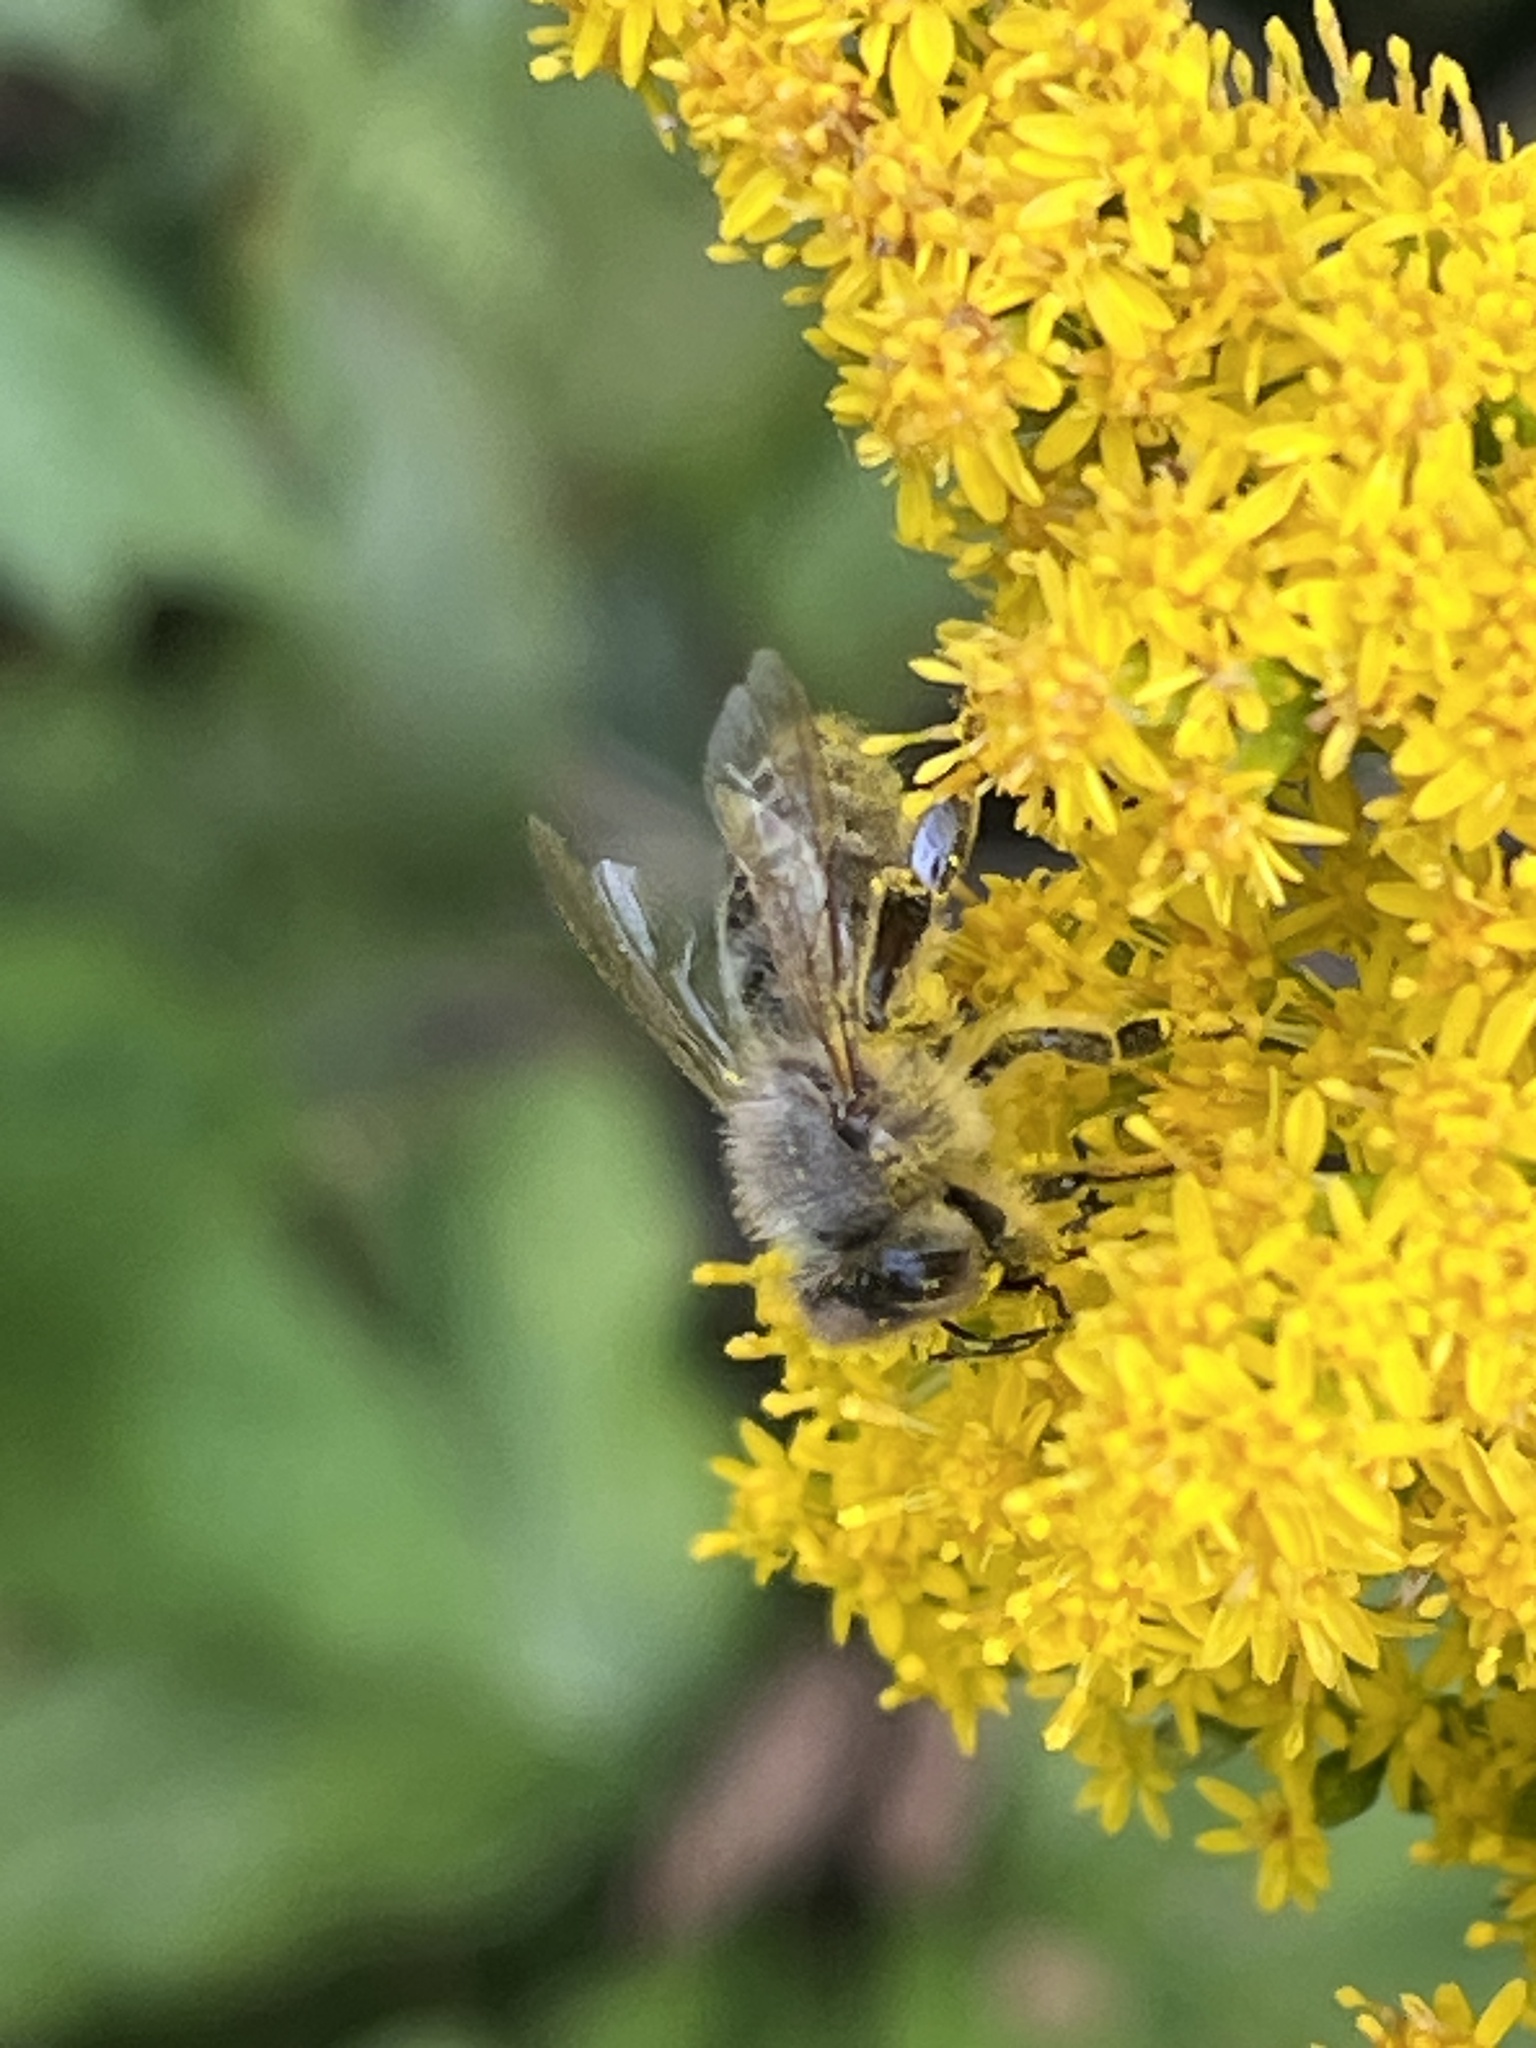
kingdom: Animalia
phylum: Arthropoda
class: Insecta
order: Hymenoptera
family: Apidae
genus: Apis
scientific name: Apis mellifera
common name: Honey bee
